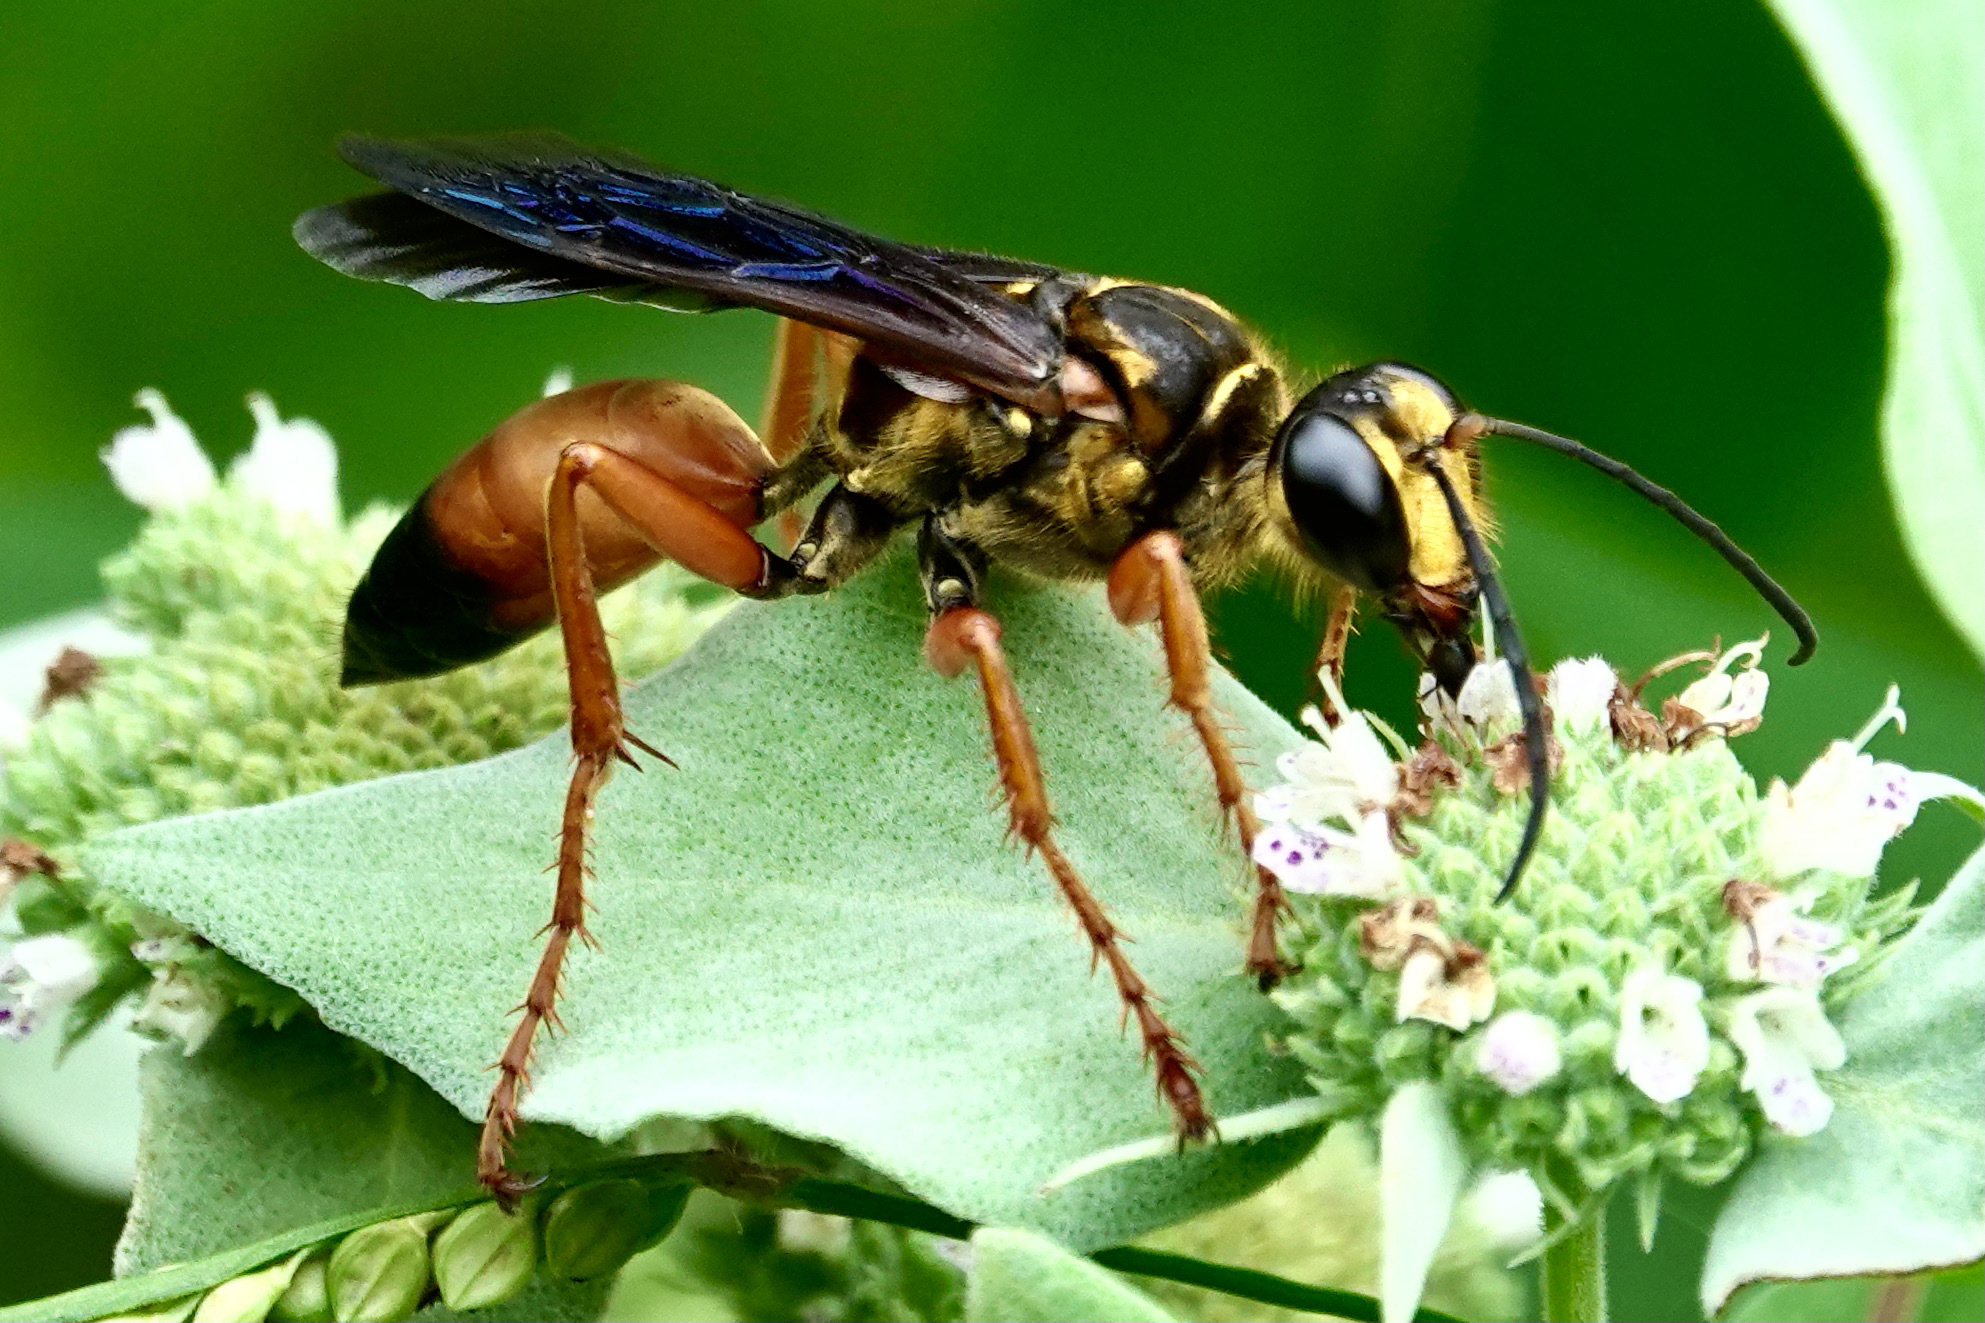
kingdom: Animalia
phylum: Arthropoda
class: Insecta
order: Hymenoptera
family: Sphecidae
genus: Sphex
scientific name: Sphex ichneumoneus
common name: Great golden digger wasp
